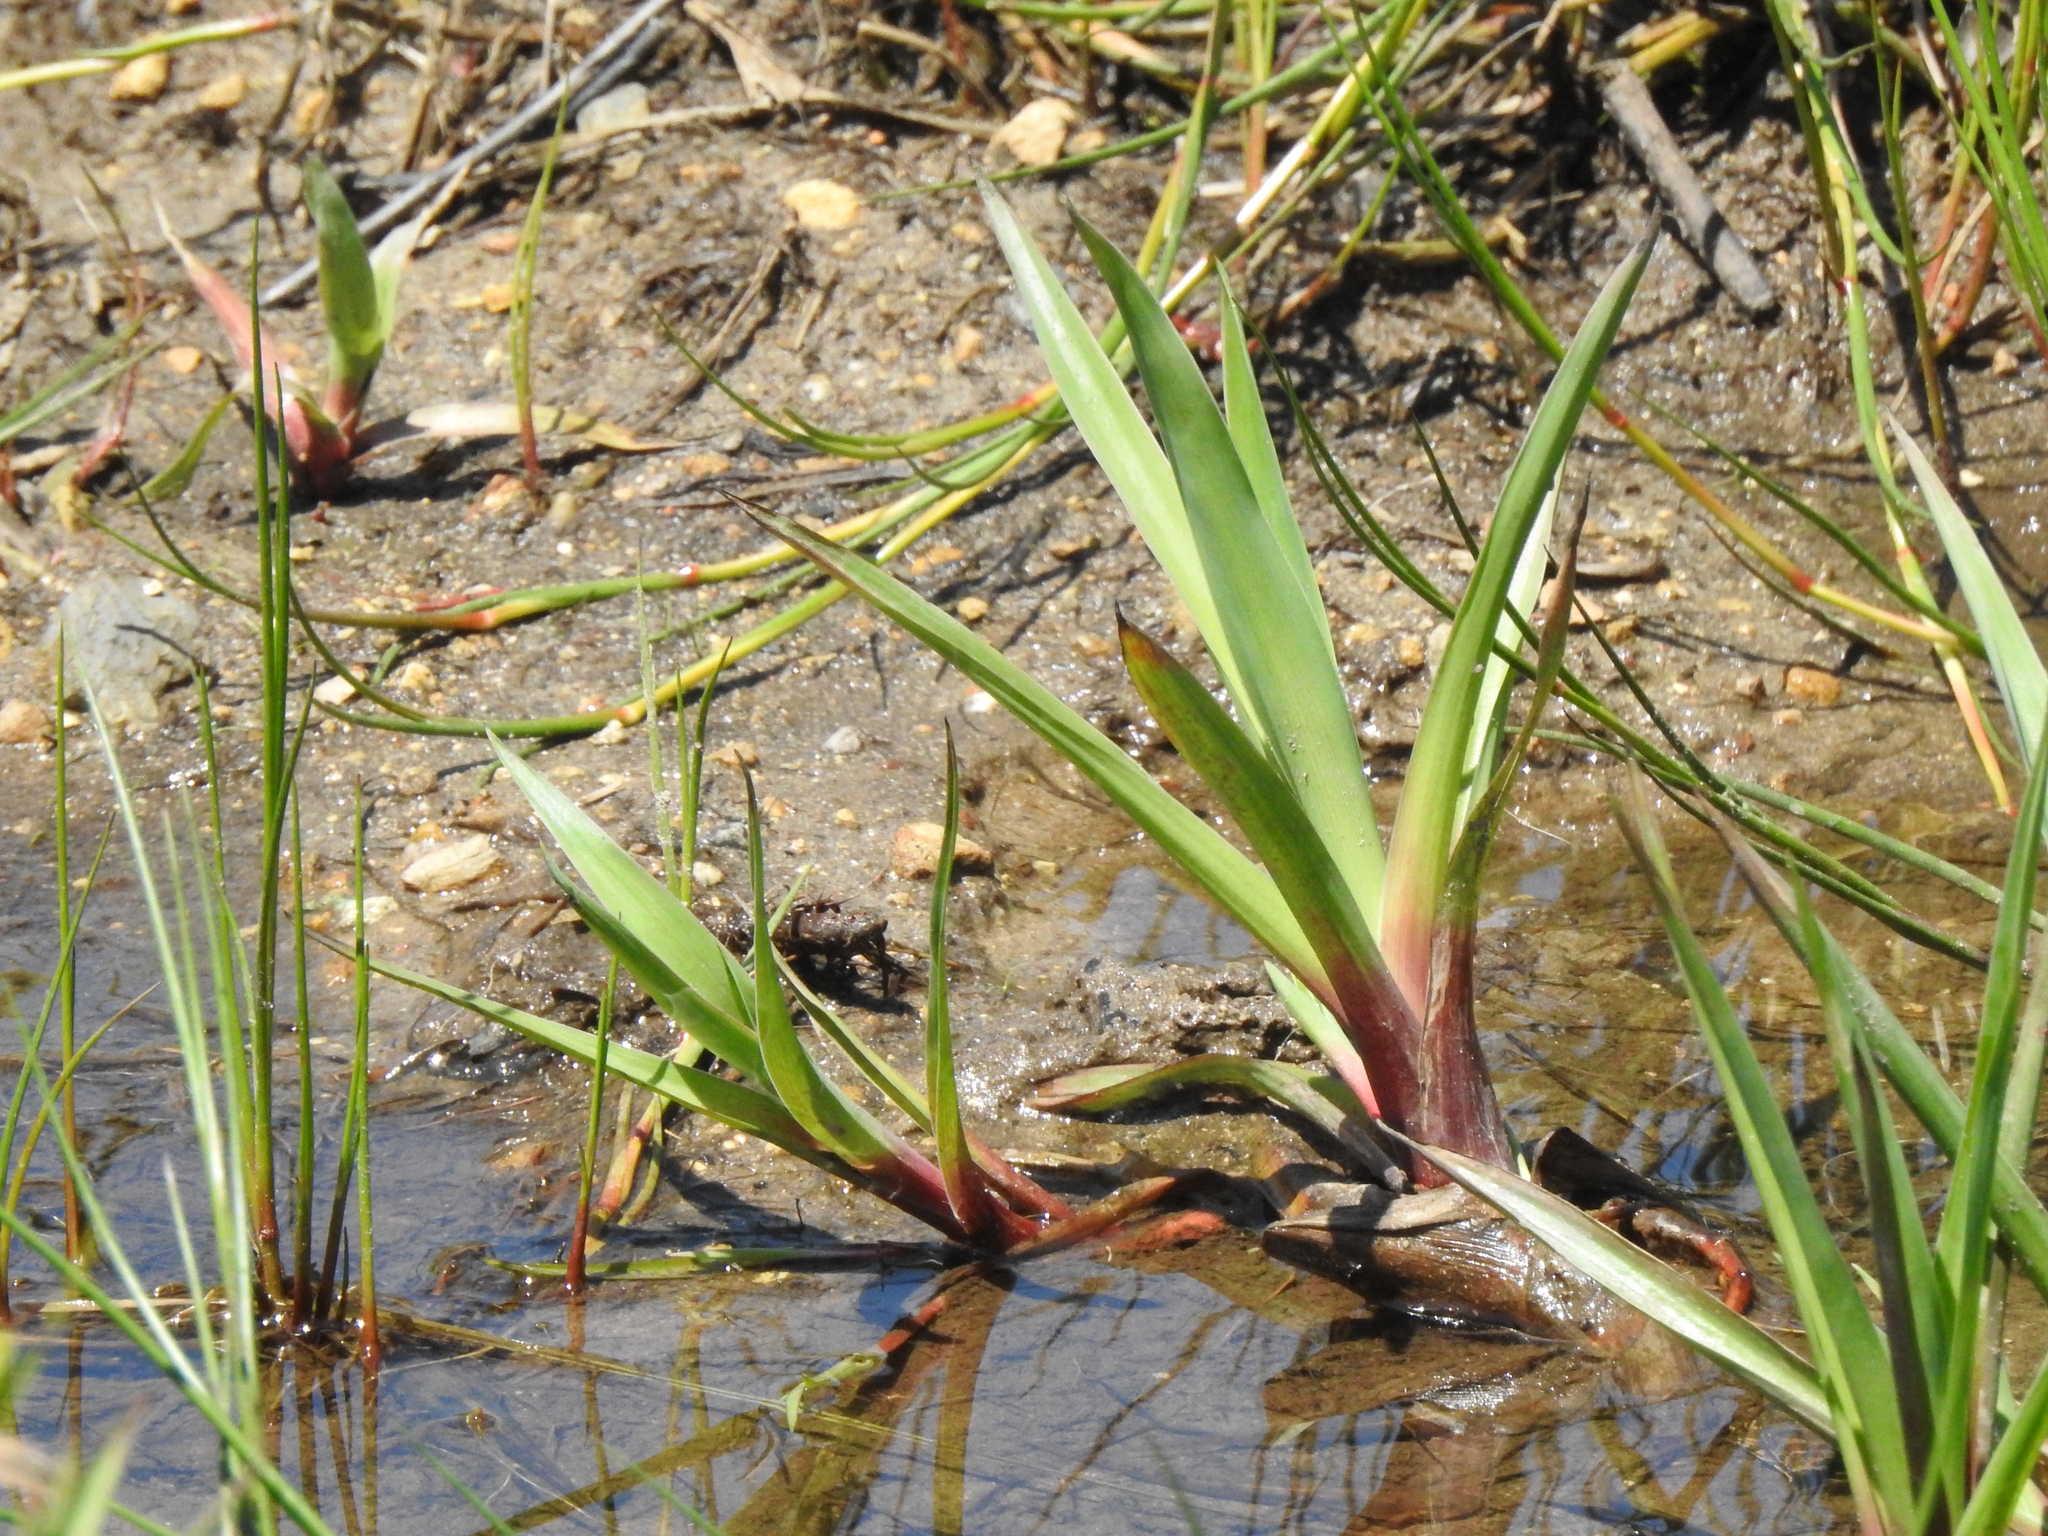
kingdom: Plantae
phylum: Tracheophyta
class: Liliopsida
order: Poales
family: Juncaceae
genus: Juncus
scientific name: Juncus lomatophyllus
